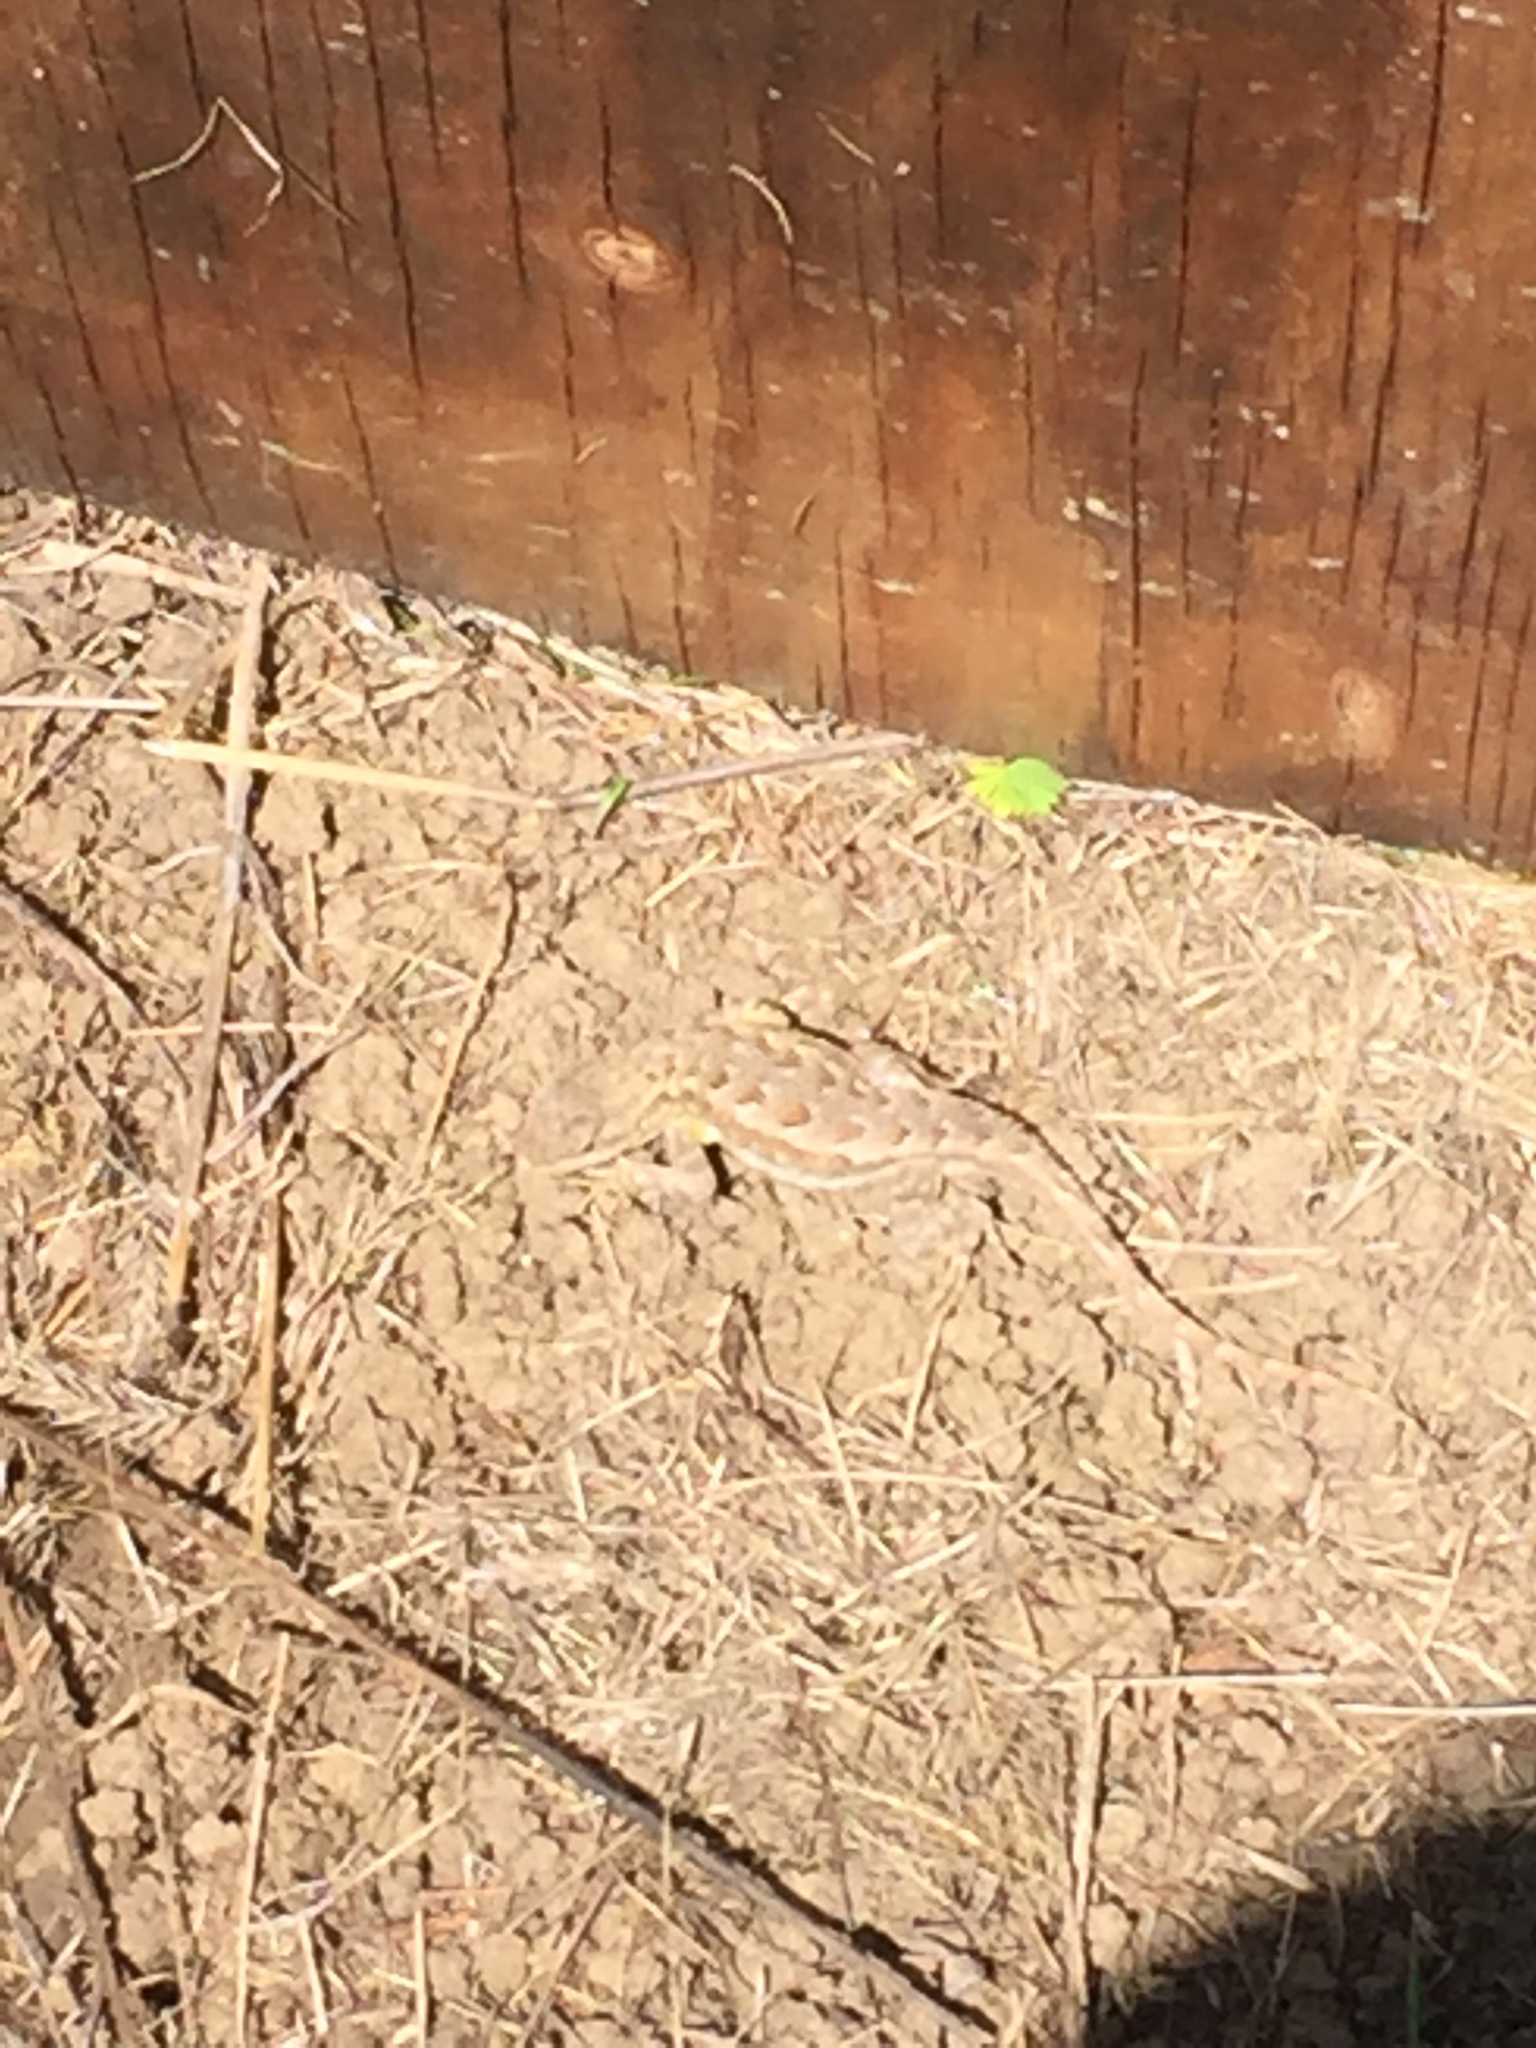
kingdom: Animalia
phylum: Chordata
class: Squamata
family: Phrynosomatidae
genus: Sceloporus
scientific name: Sceloporus occidentalis
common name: Western fence lizard
